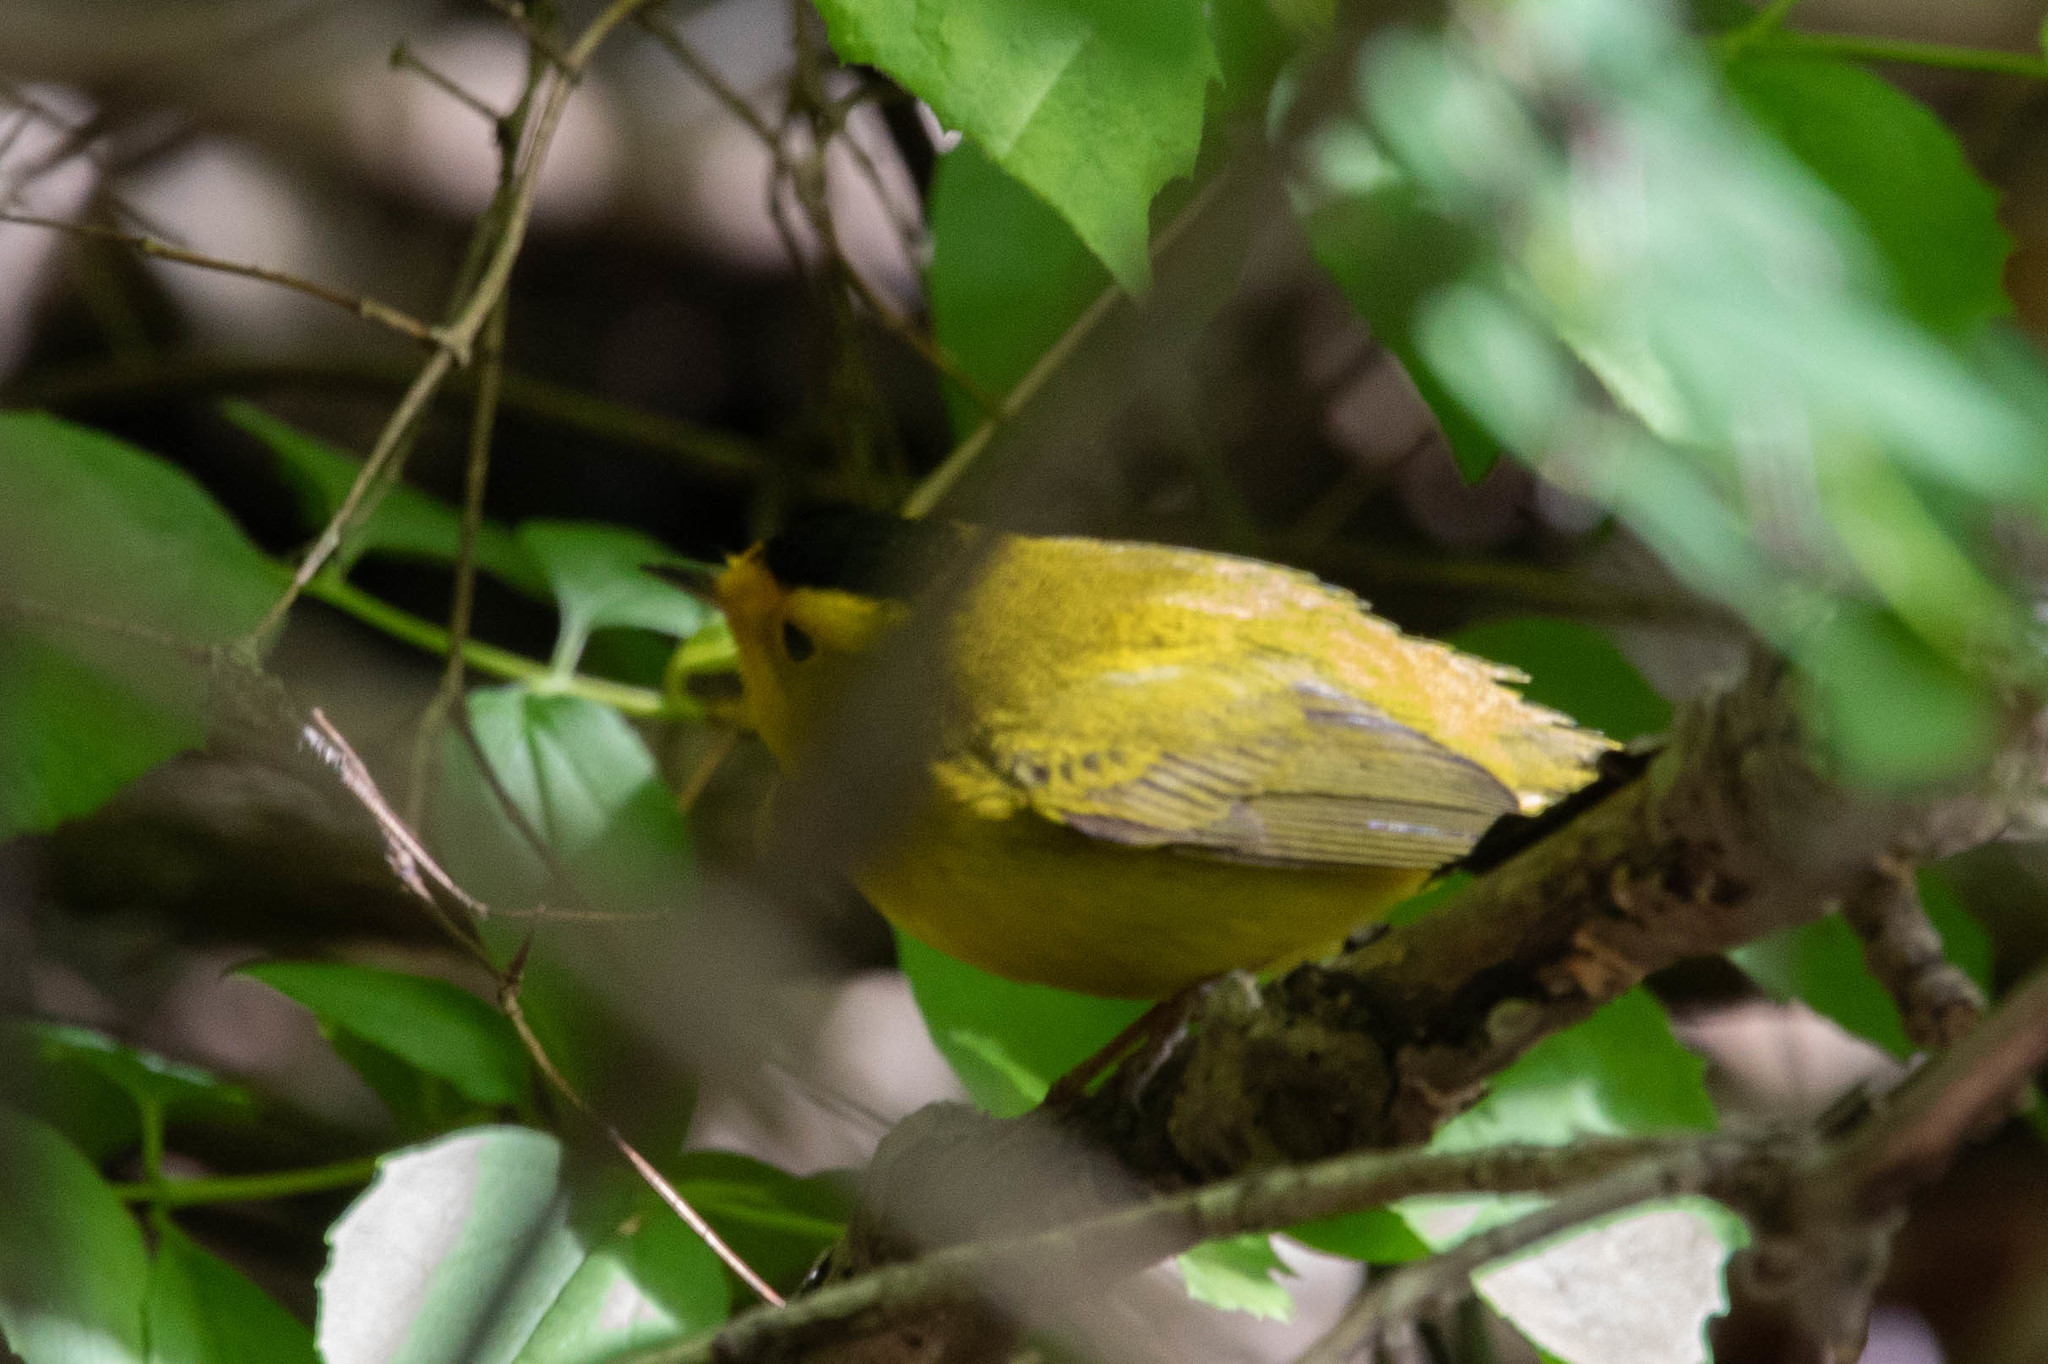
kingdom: Animalia
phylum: Chordata
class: Aves
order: Passeriformes
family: Parulidae
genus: Cardellina
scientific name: Cardellina pusilla
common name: Wilson's warbler
